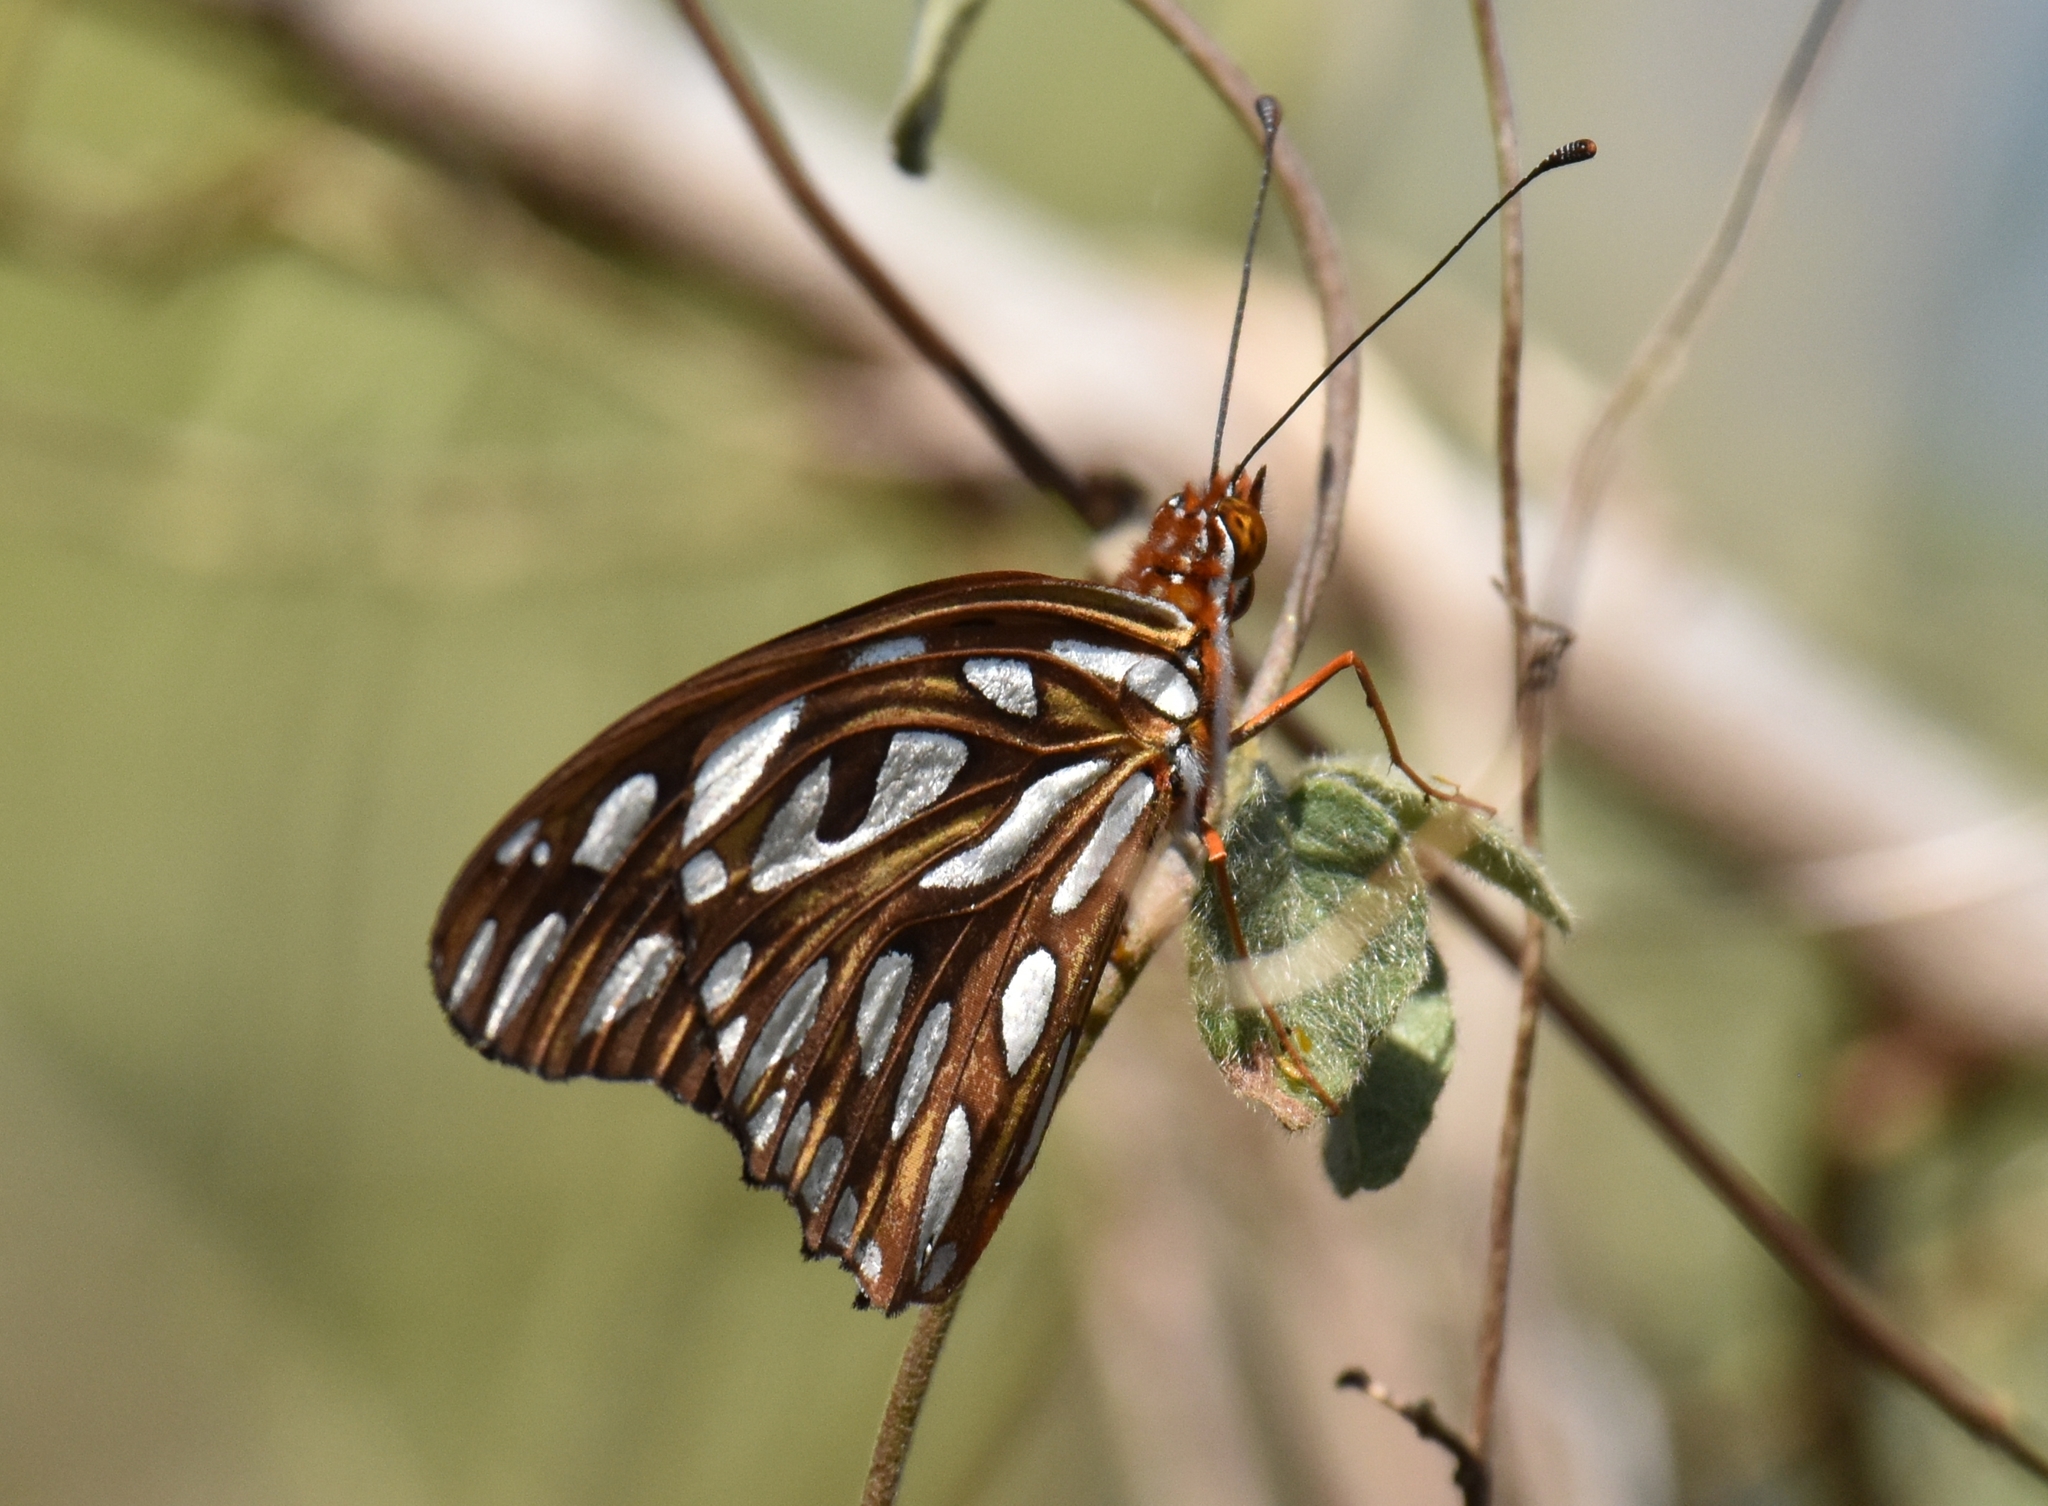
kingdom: Animalia
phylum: Arthropoda
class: Insecta
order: Lepidoptera
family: Nymphalidae
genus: Dione
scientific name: Dione vanillae
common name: Gulf fritillary
